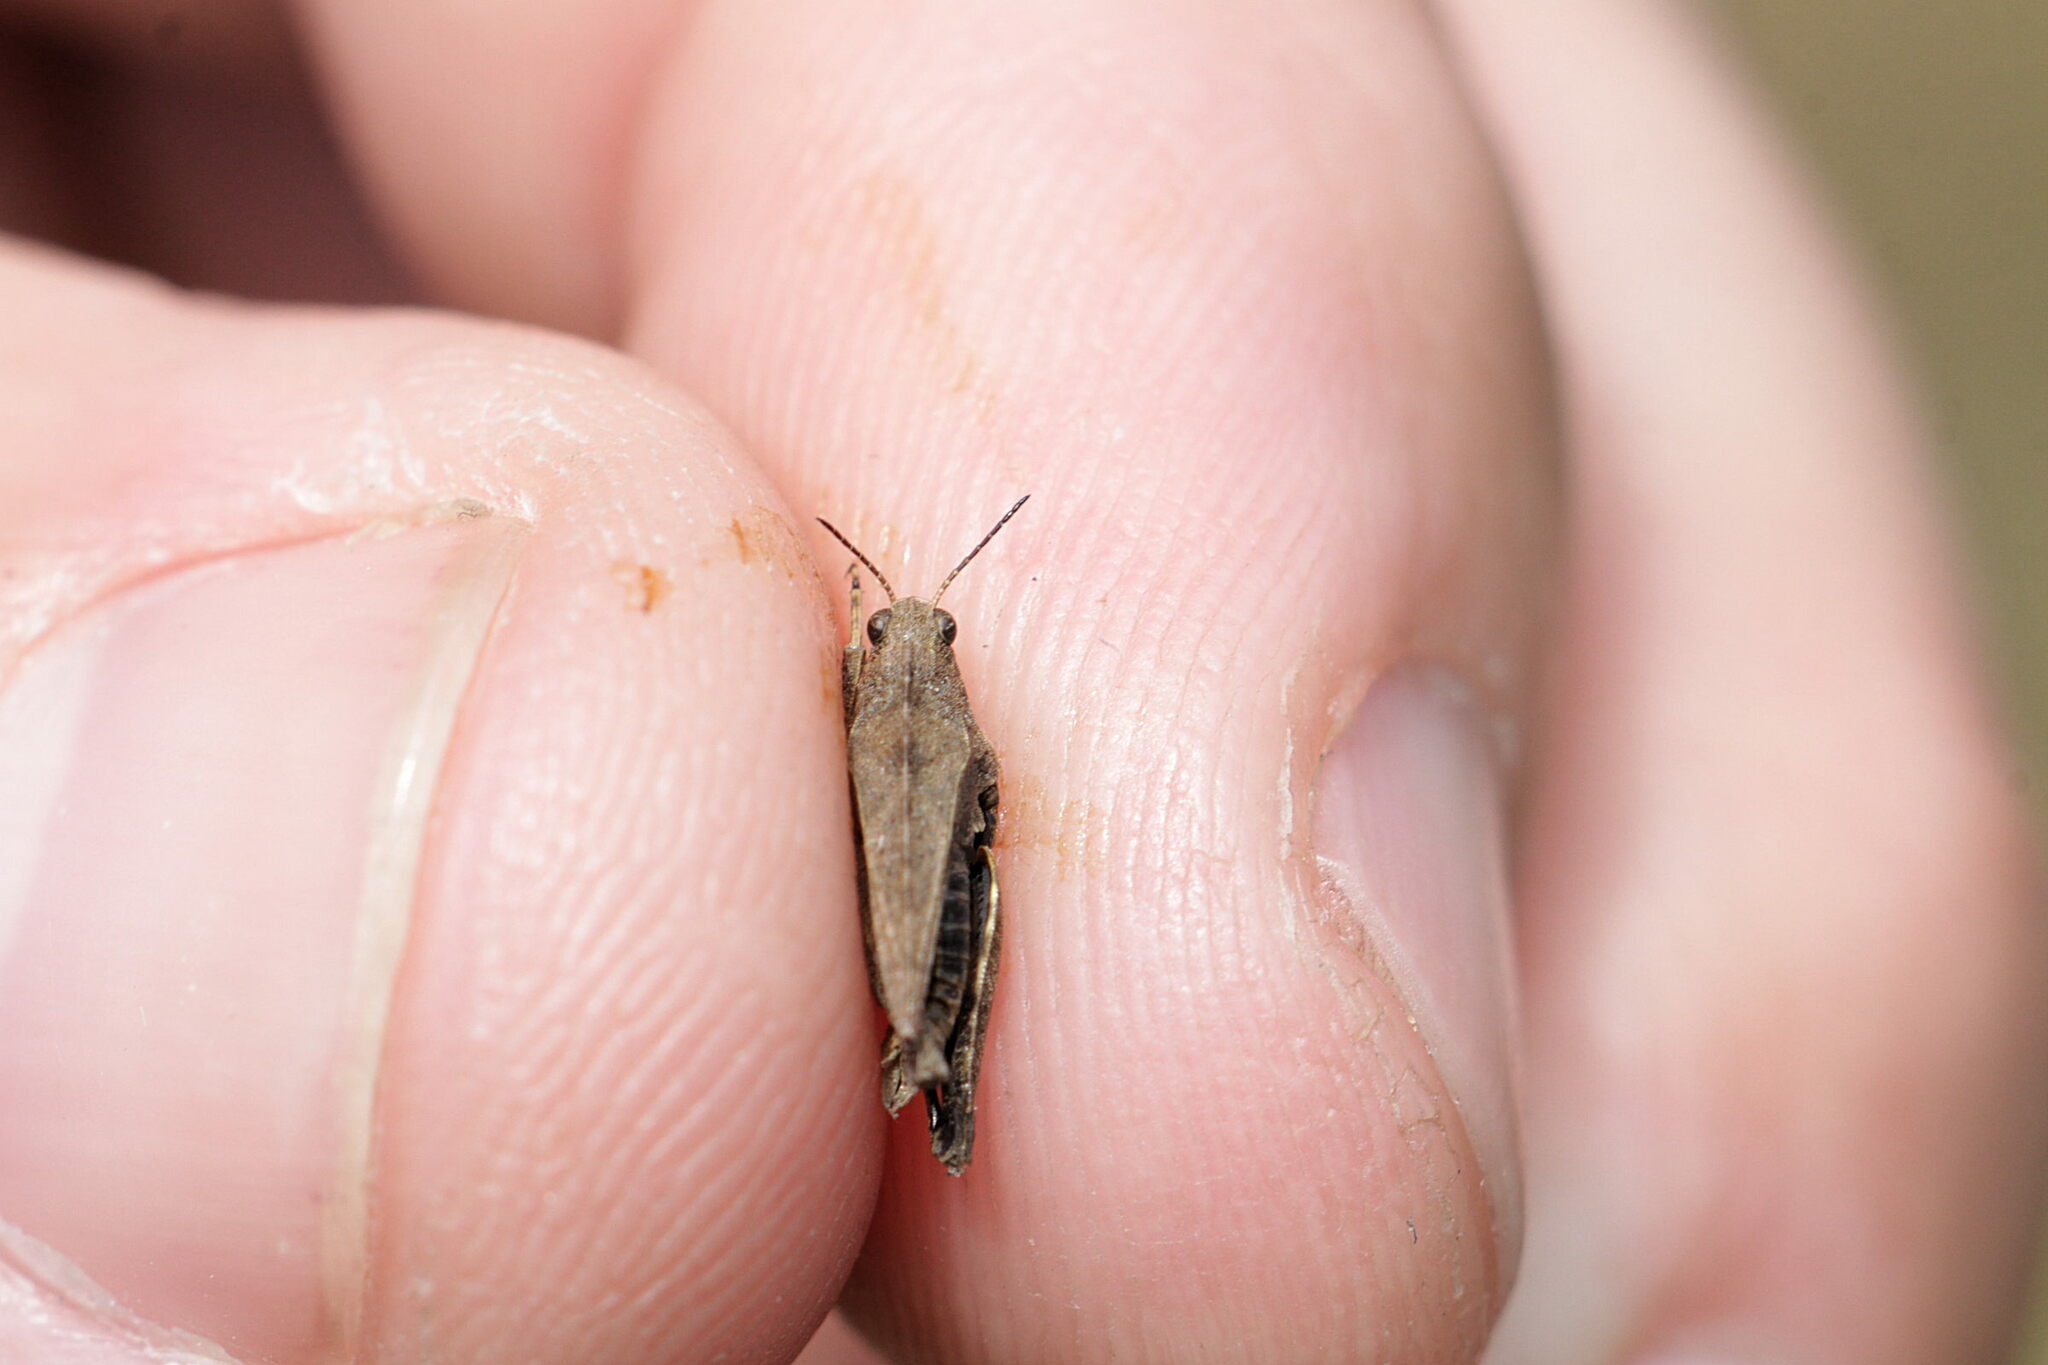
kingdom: Animalia
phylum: Arthropoda
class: Insecta
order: Orthoptera
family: Tetrigidae
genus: Tetrix
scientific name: Tetrix undulata
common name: Common groundhopper
